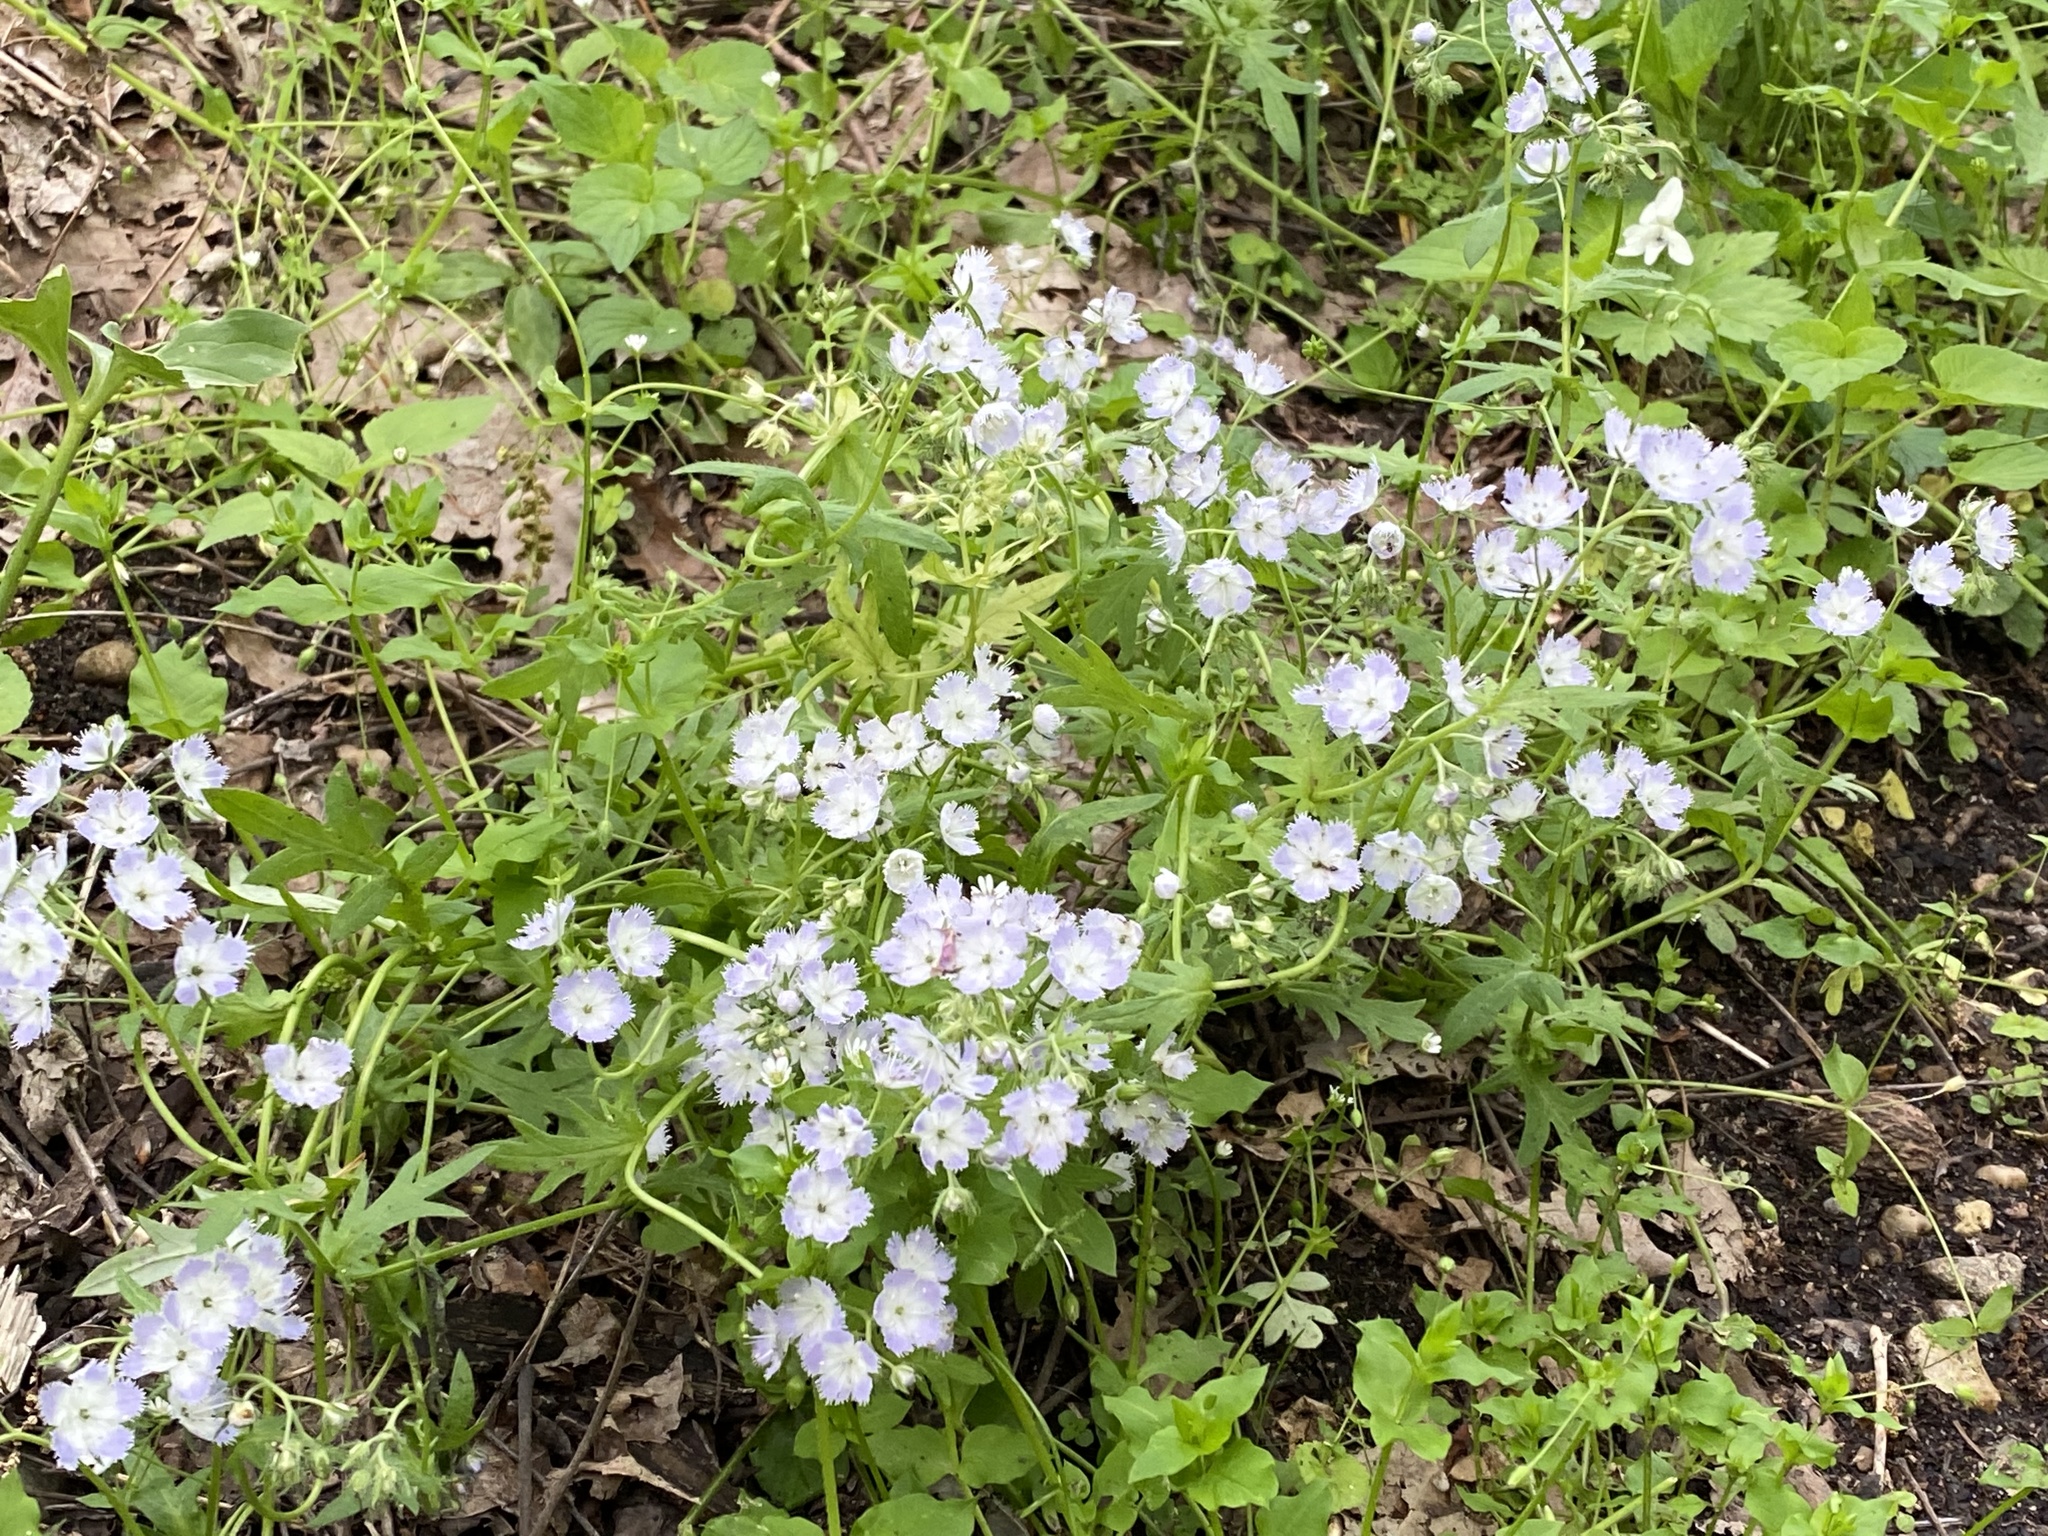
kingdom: Plantae
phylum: Tracheophyta
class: Magnoliopsida
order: Boraginales
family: Hydrophyllaceae
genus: Phacelia
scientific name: Phacelia purshii
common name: Miami-mist
